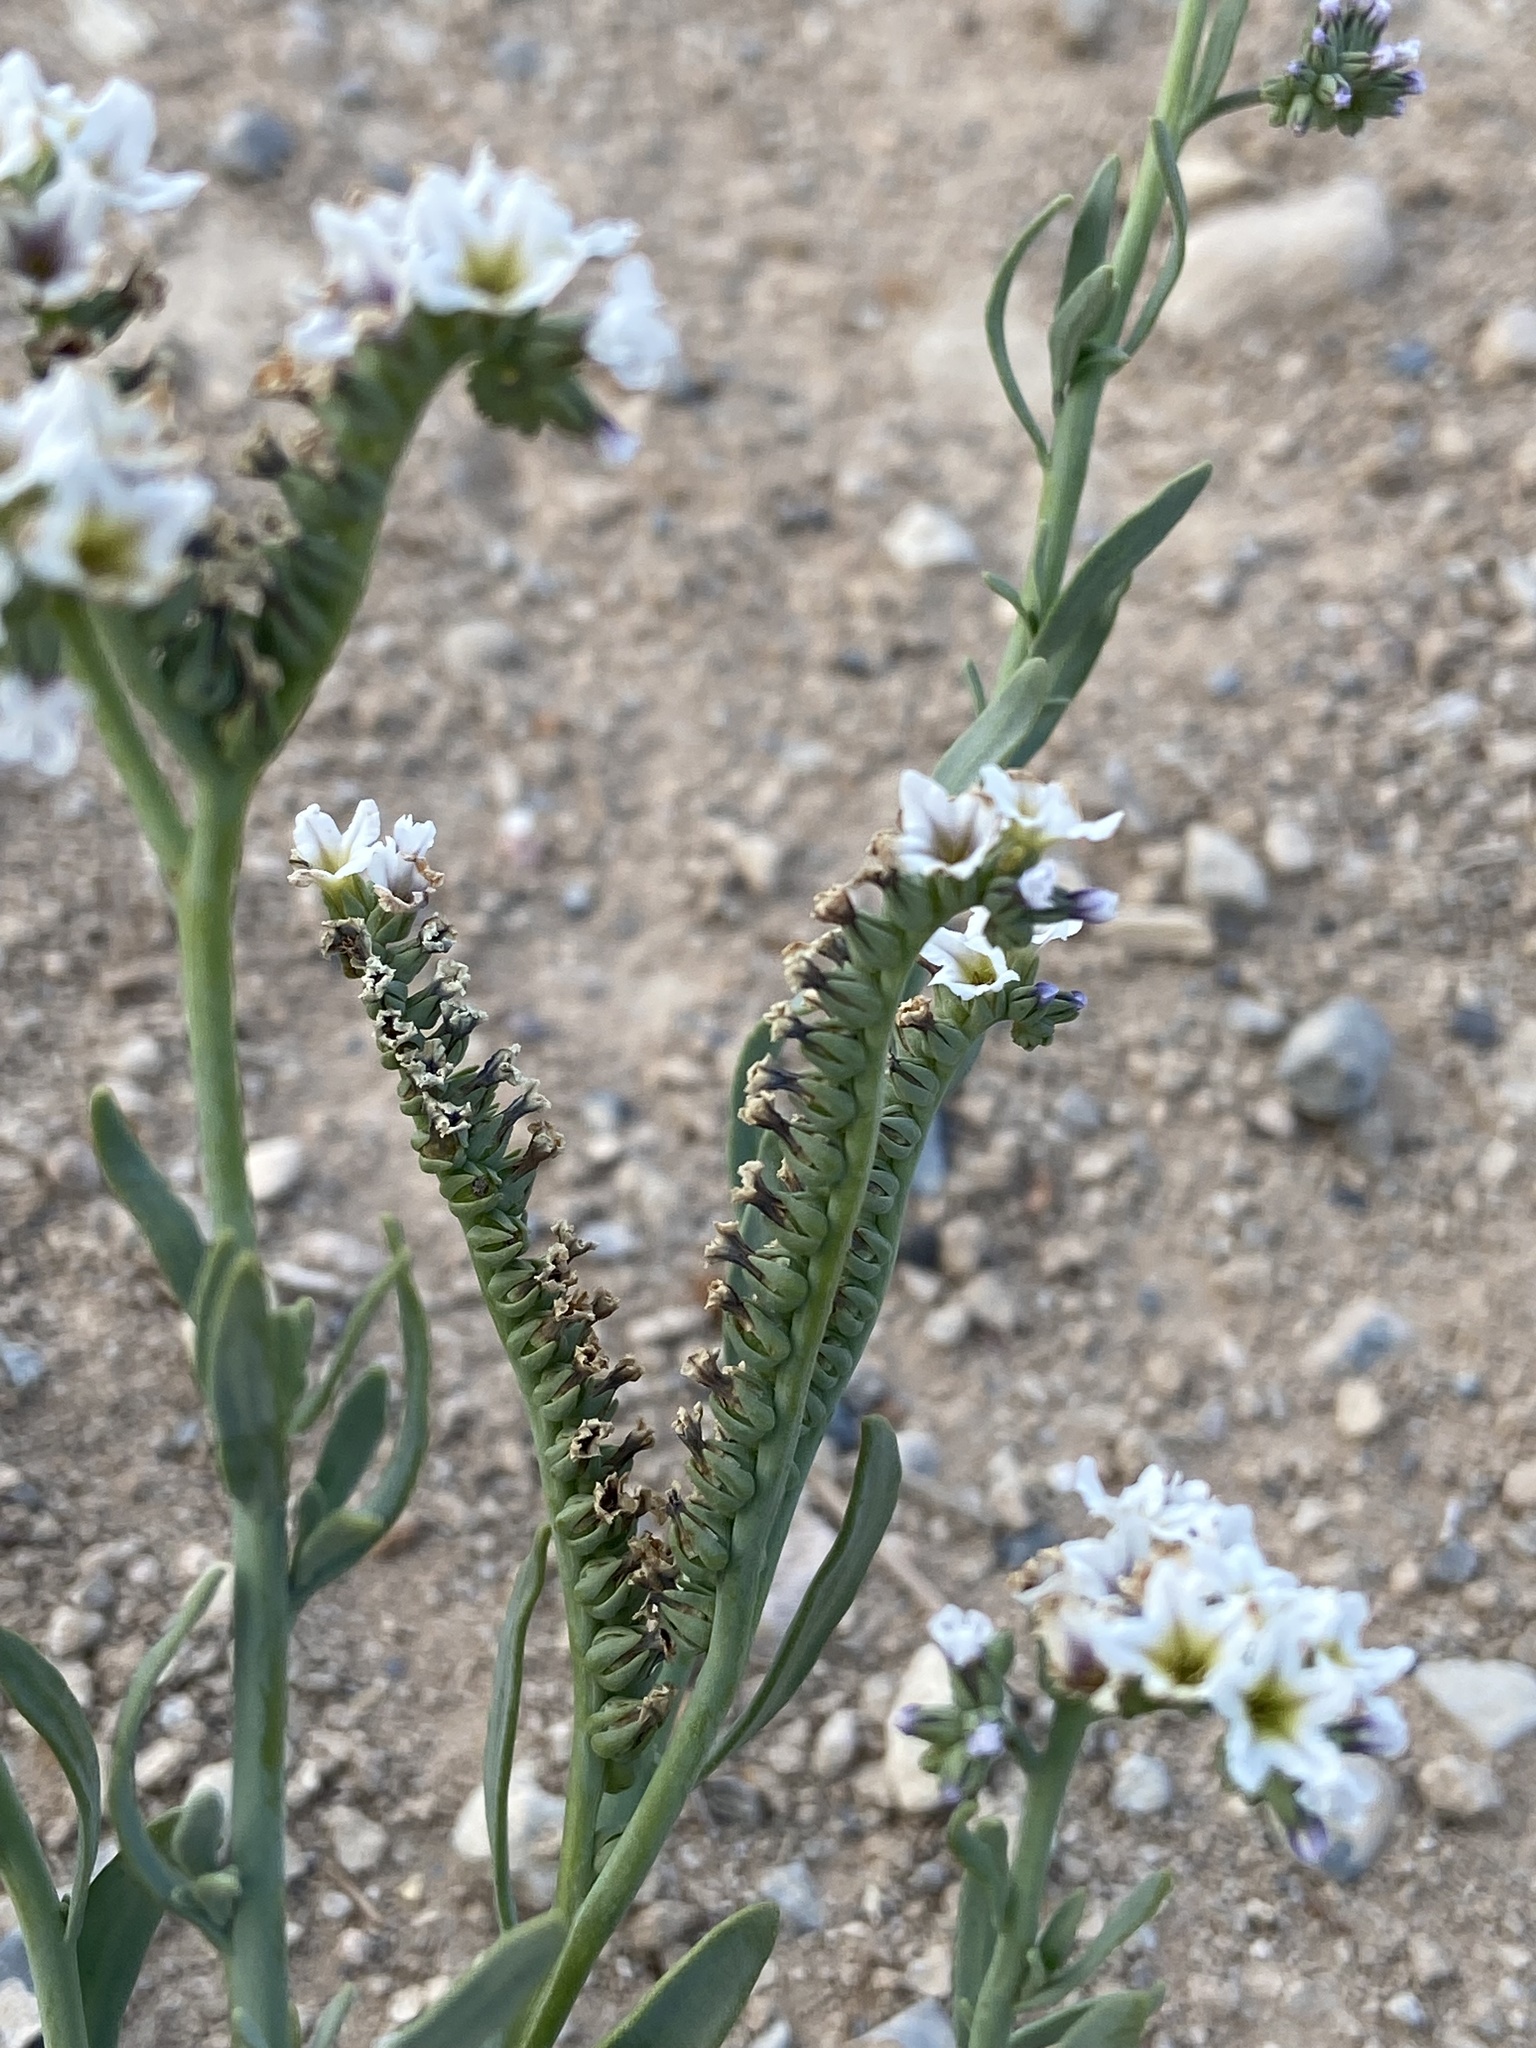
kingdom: Plantae
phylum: Tracheophyta
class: Magnoliopsida
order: Boraginales
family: Heliotropiaceae
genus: Heliotropium
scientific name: Heliotropium curassavicum
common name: Seaside heliotrope
